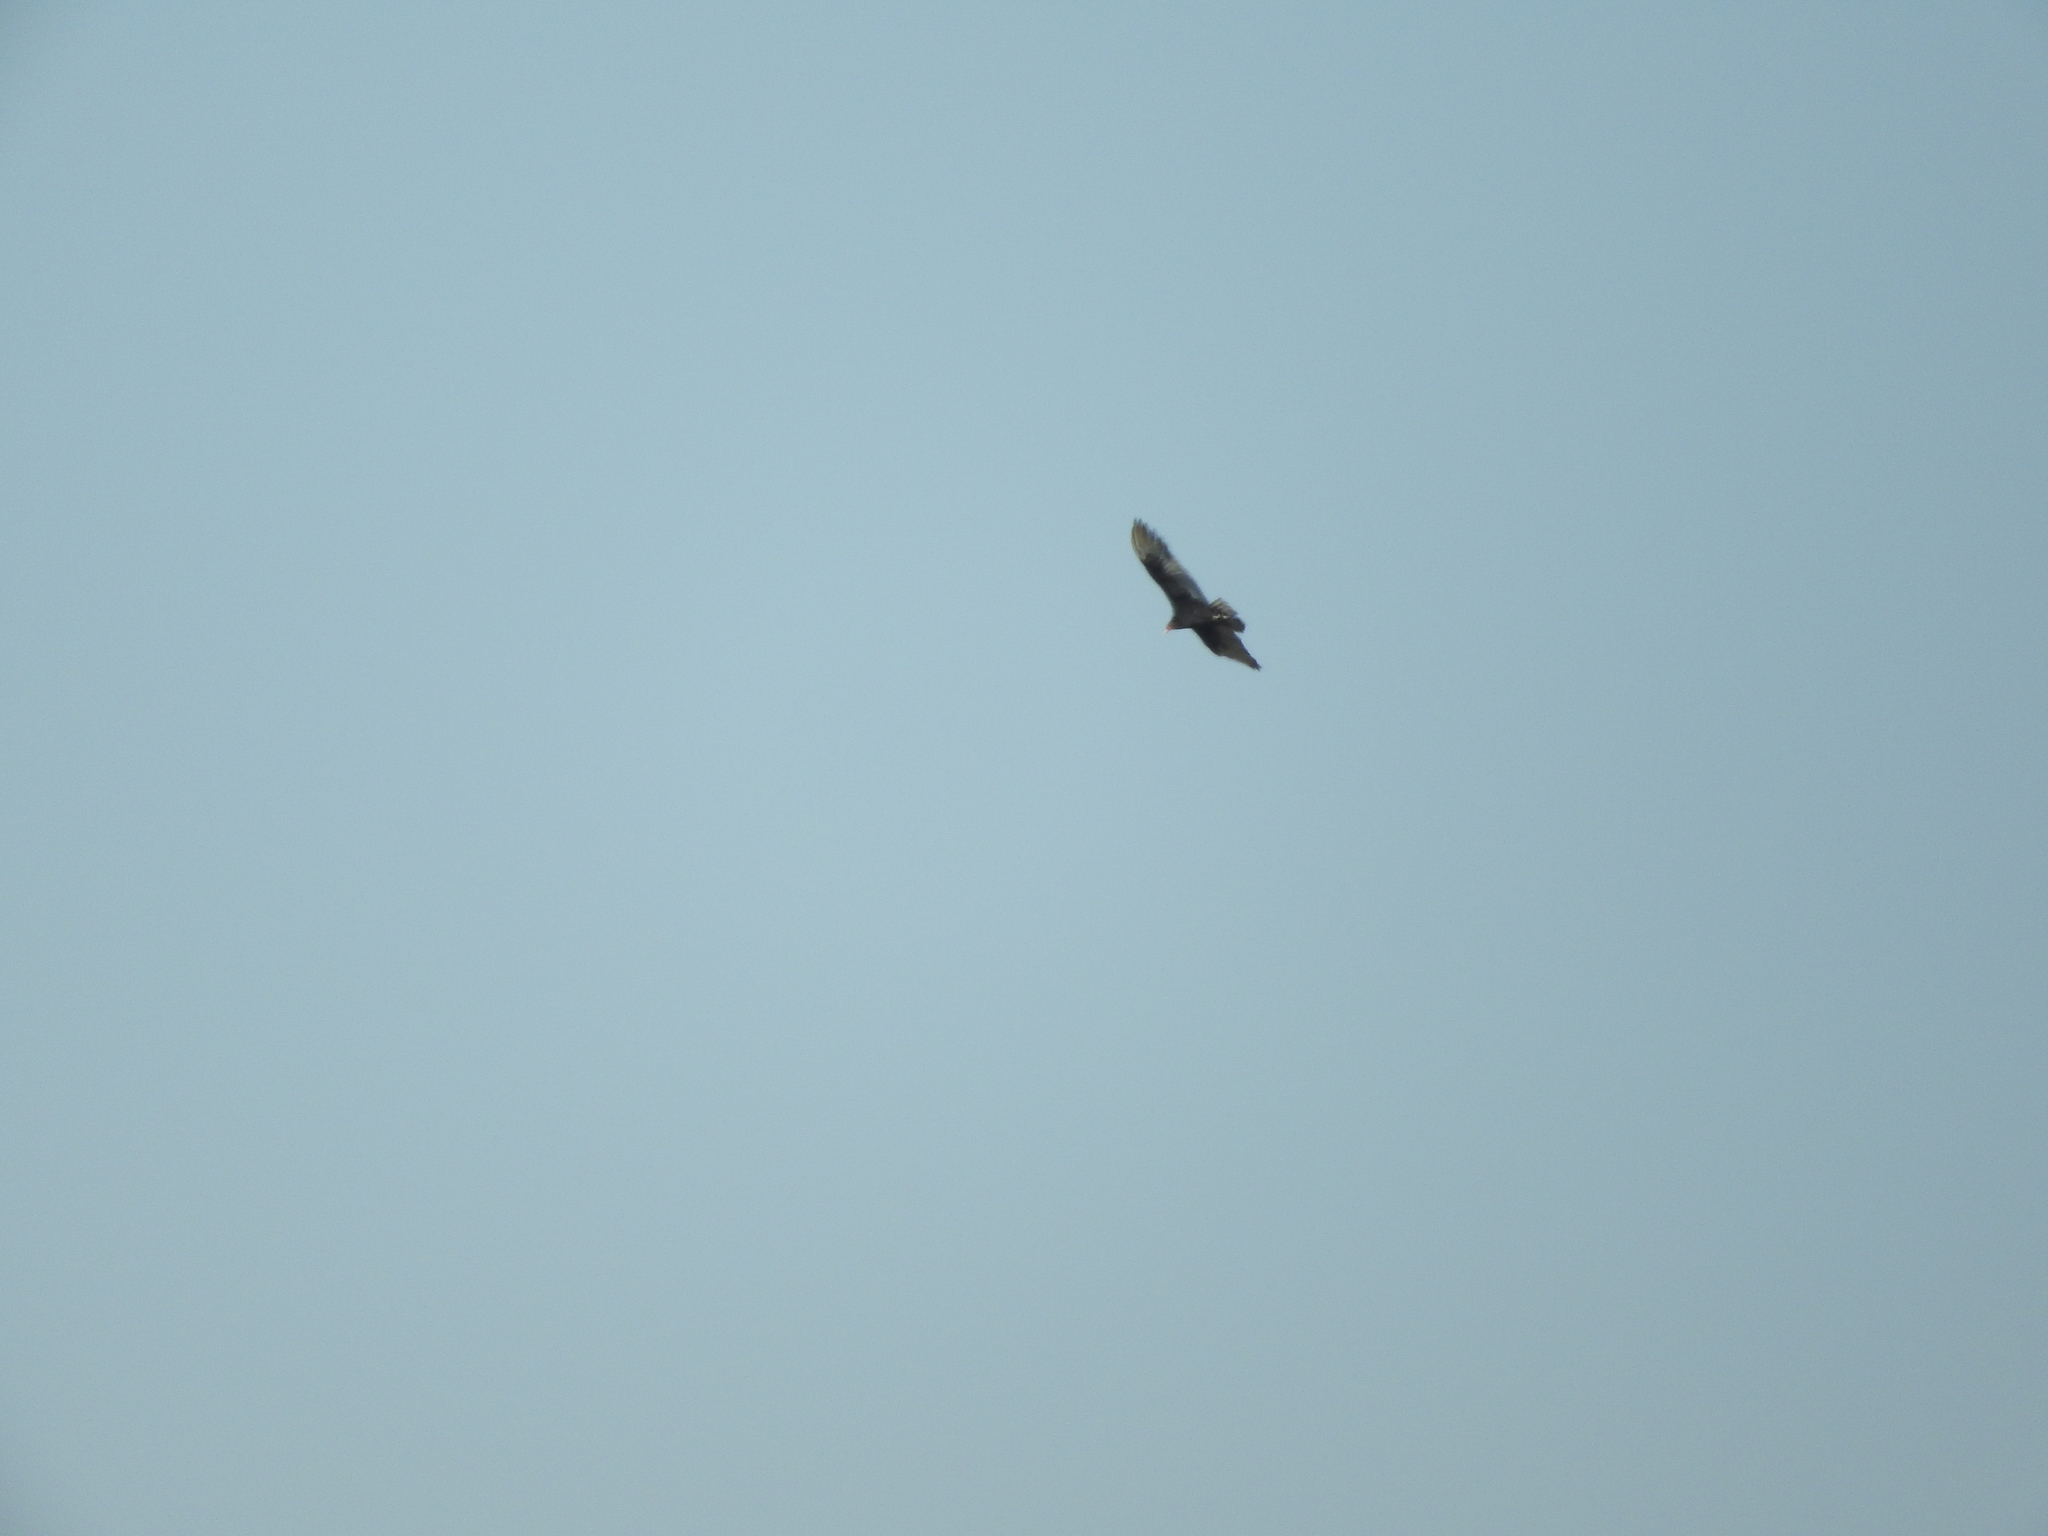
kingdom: Animalia
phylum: Chordata
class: Aves
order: Accipitriformes
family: Cathartidae
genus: Cathartes
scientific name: Cathartes aura
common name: Turkey vulture
